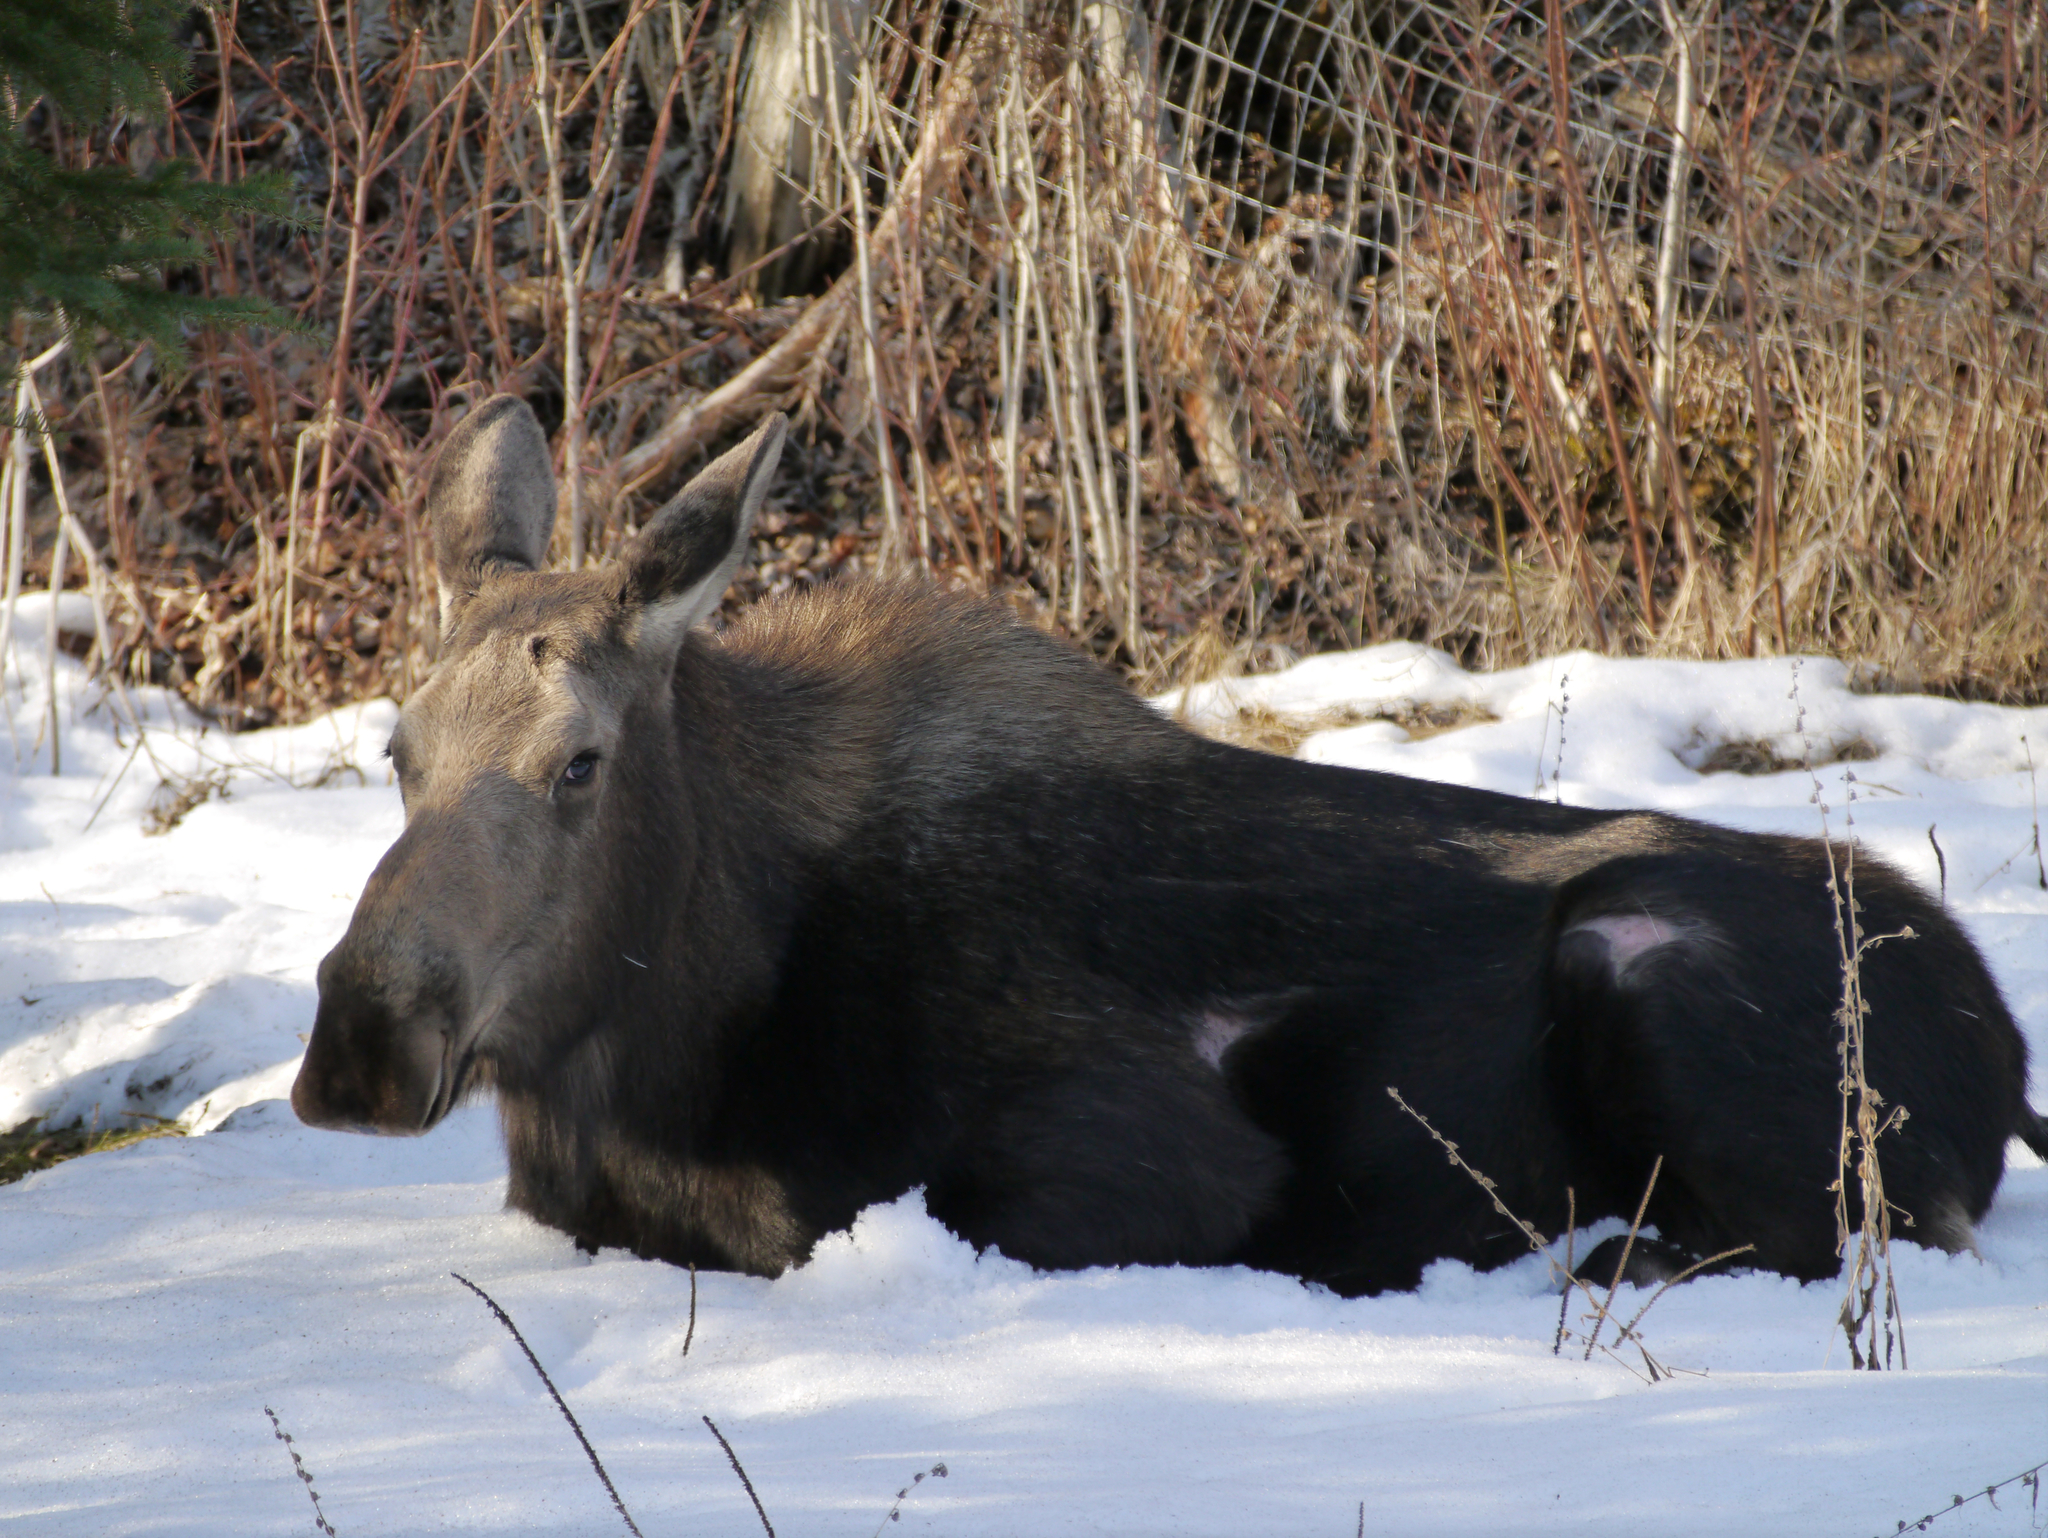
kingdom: Animalia
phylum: Chordata
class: Mammalia
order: Artiodactyla
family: Cervidae
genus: Alces
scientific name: Alces alces
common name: Moose
